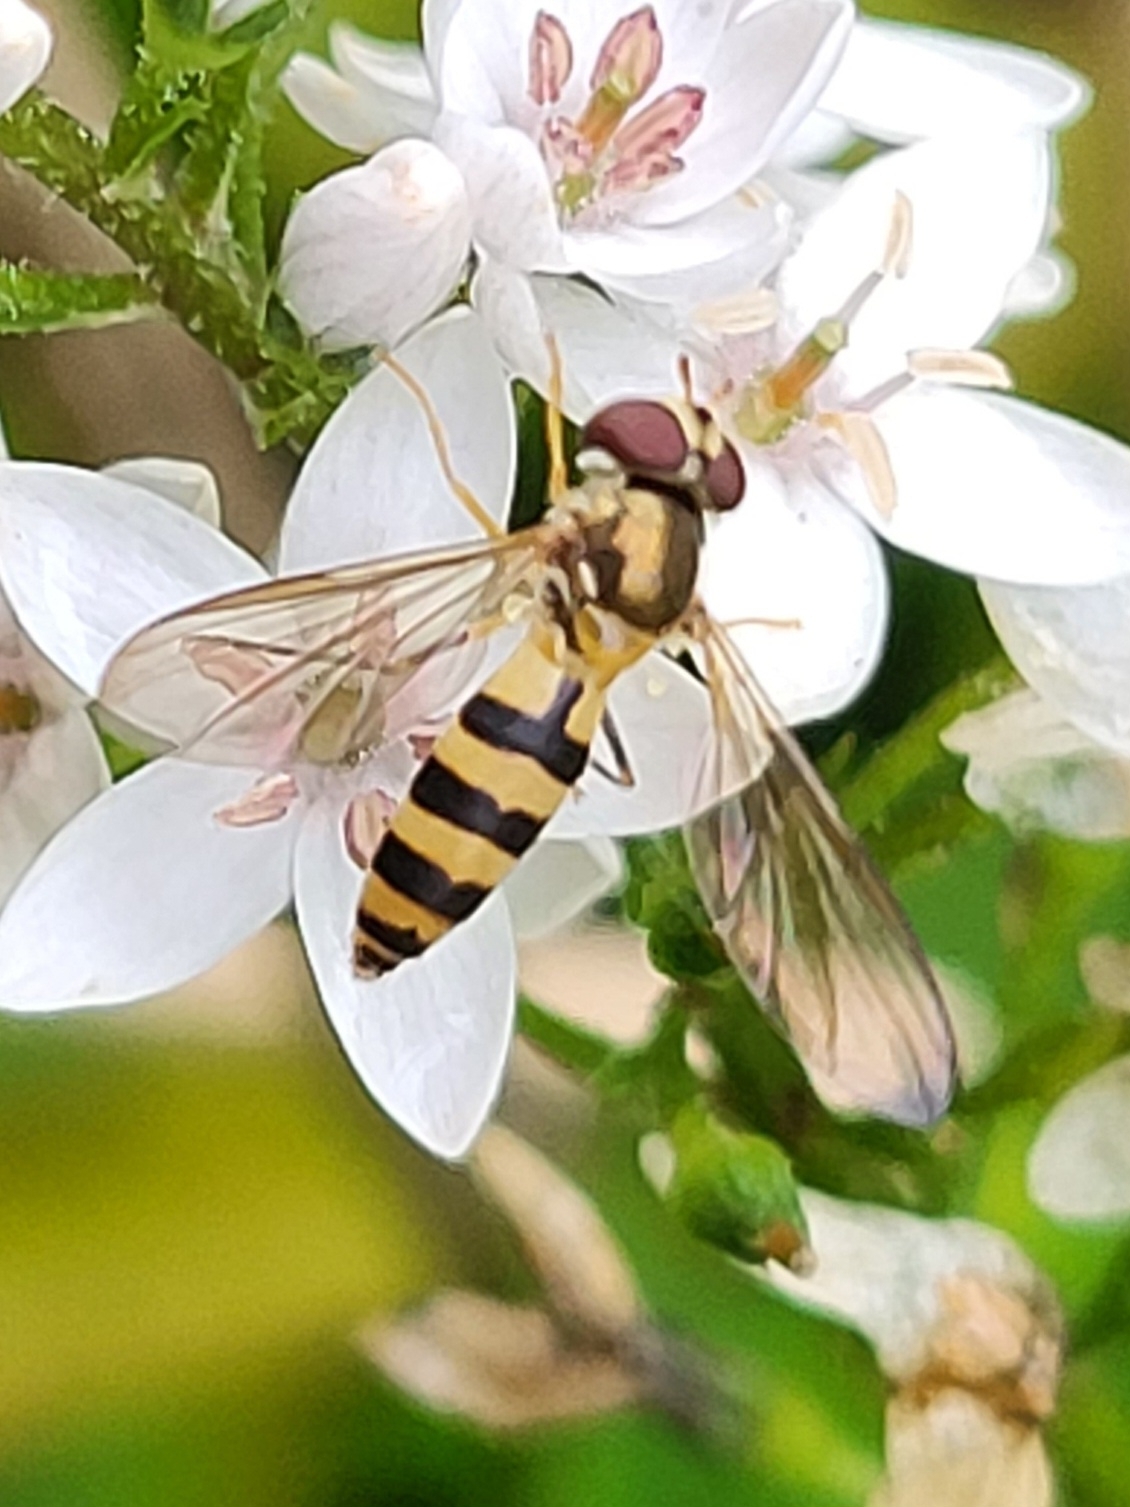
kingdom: Animalia
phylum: Arthropoda
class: Insecta
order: Diptera
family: Syrphidae
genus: Meliscaeva
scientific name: Meliscaeva cinctella
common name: American thintail fly
